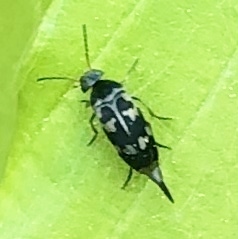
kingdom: Animalia
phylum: Arthropoda
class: Insecta
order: Coleoptera
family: Mordellidae
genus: Falsomordellistena
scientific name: Falsomordellistena pubescens
